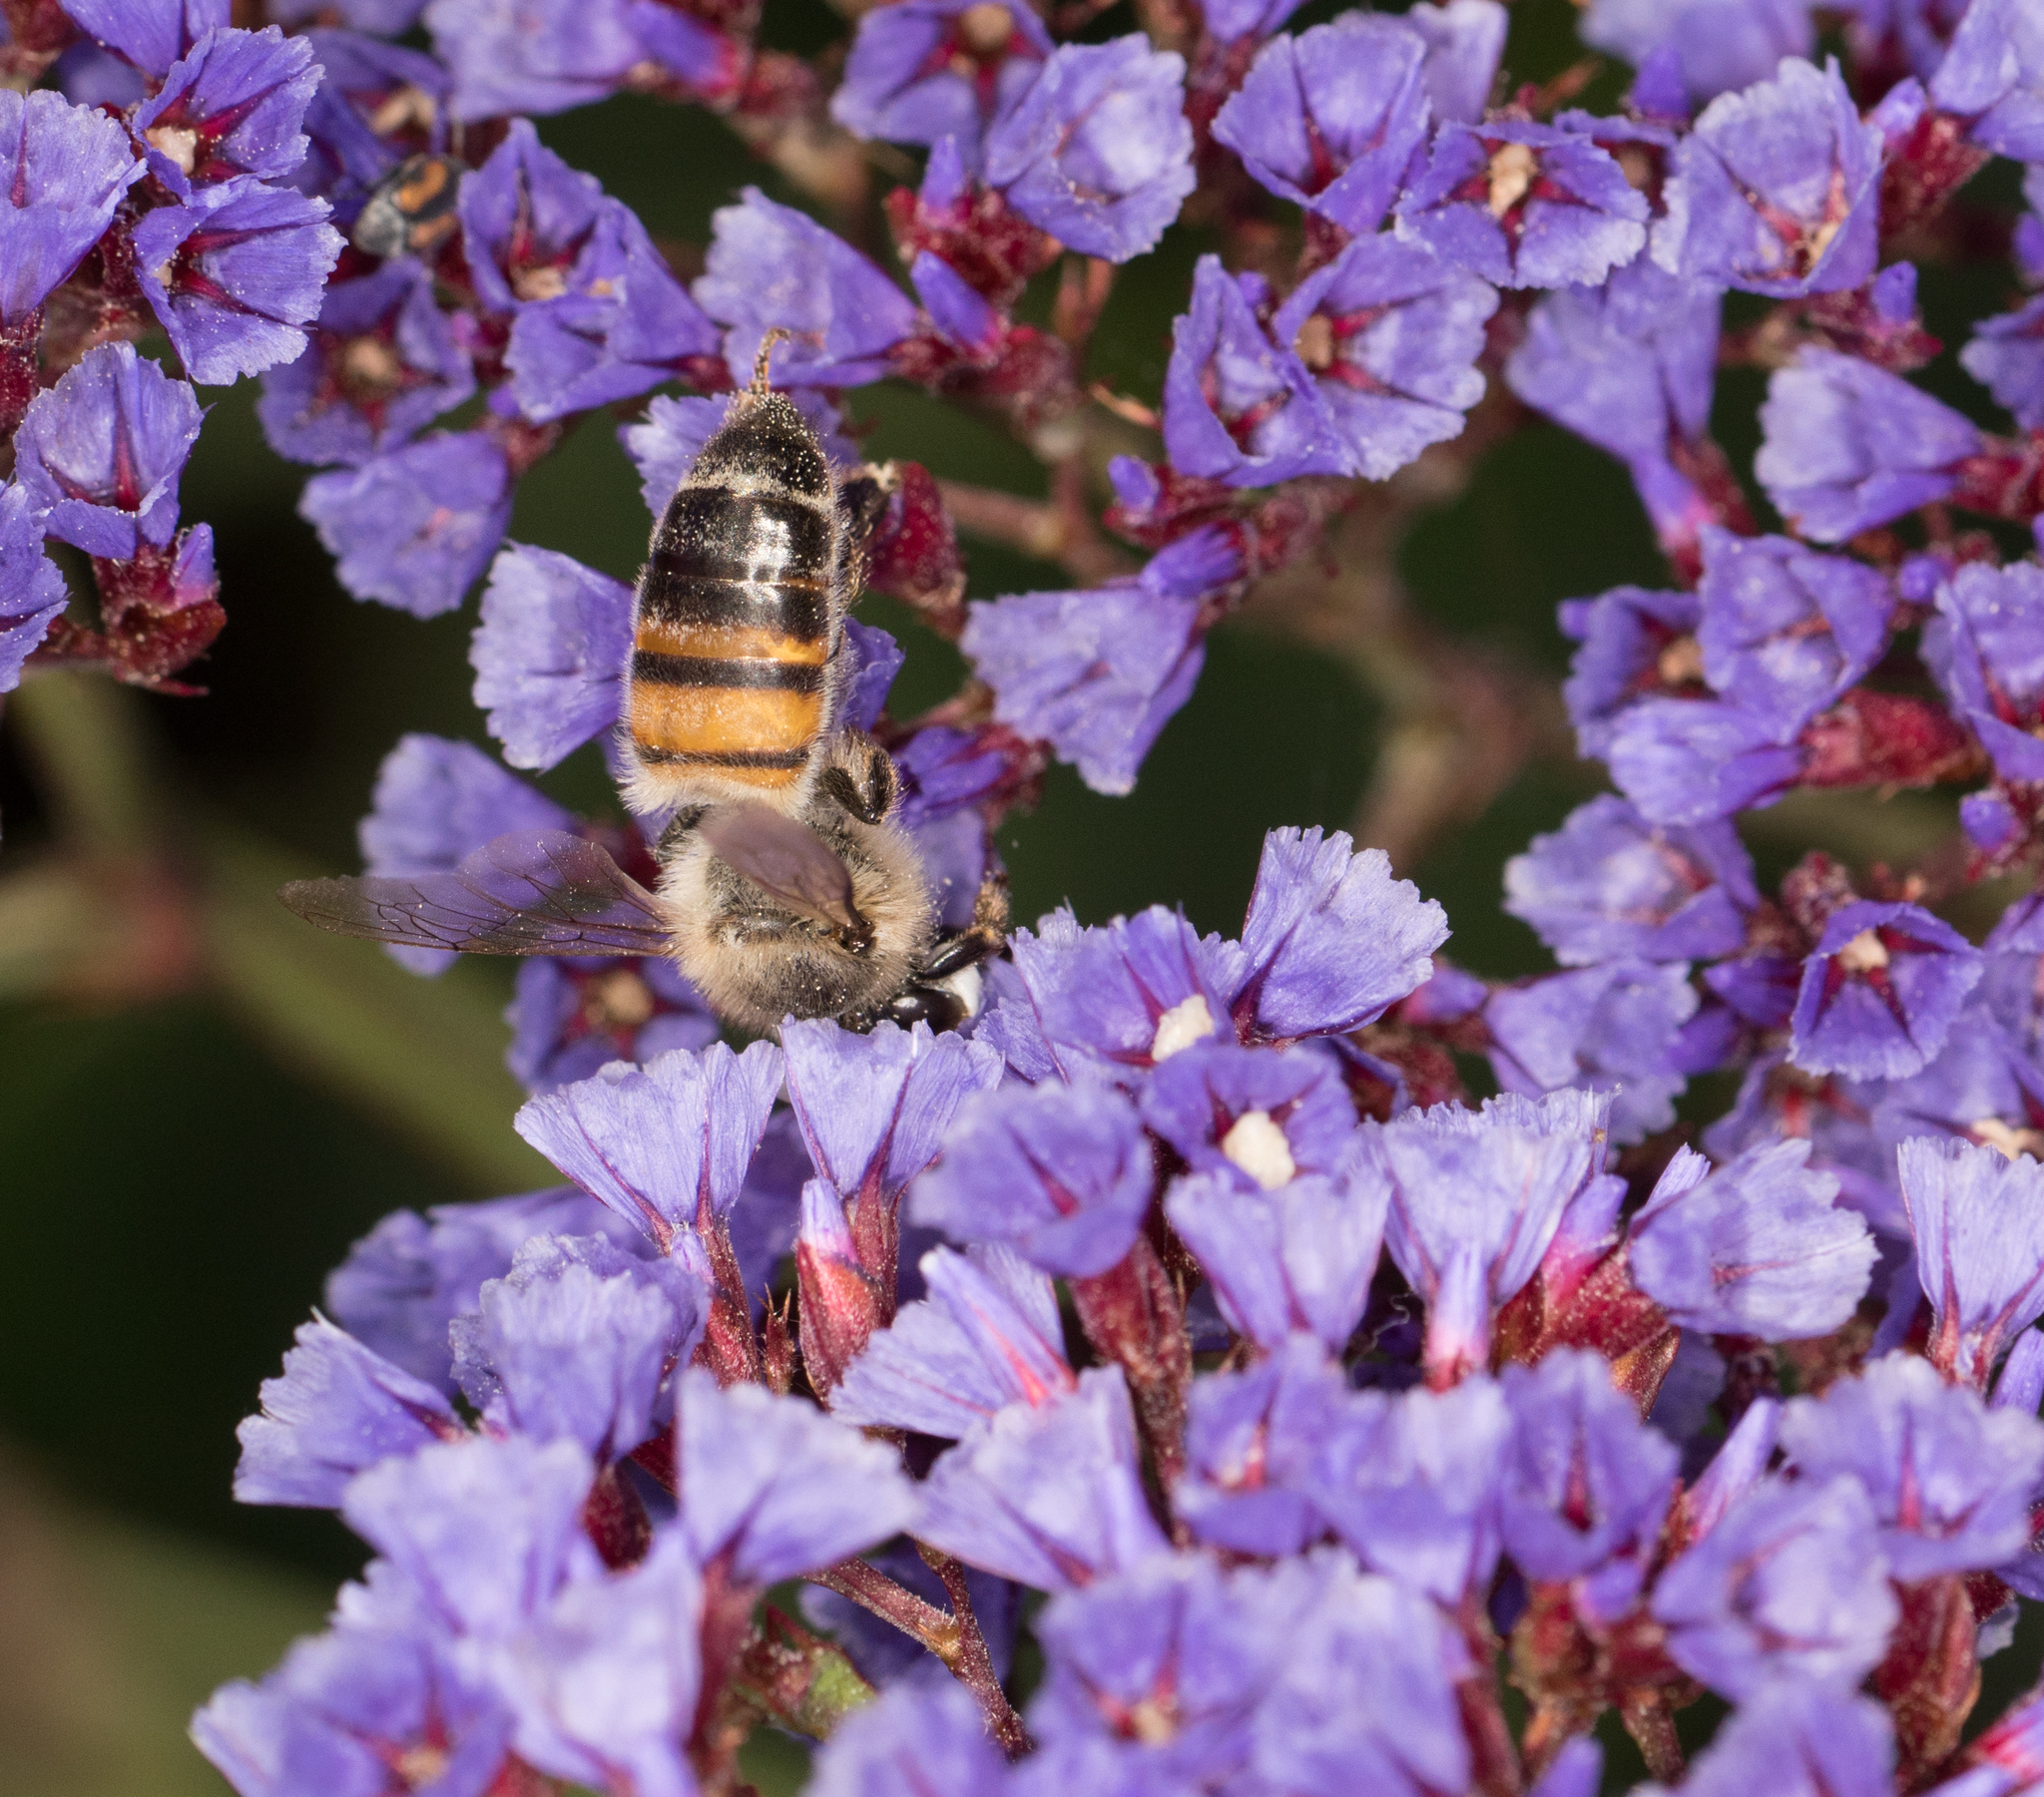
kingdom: Animalia
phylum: Arthropoda
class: Insecta
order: Hymenoptera
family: Apidae
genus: Apis
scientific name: Apis mellifera
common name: Honey bee
